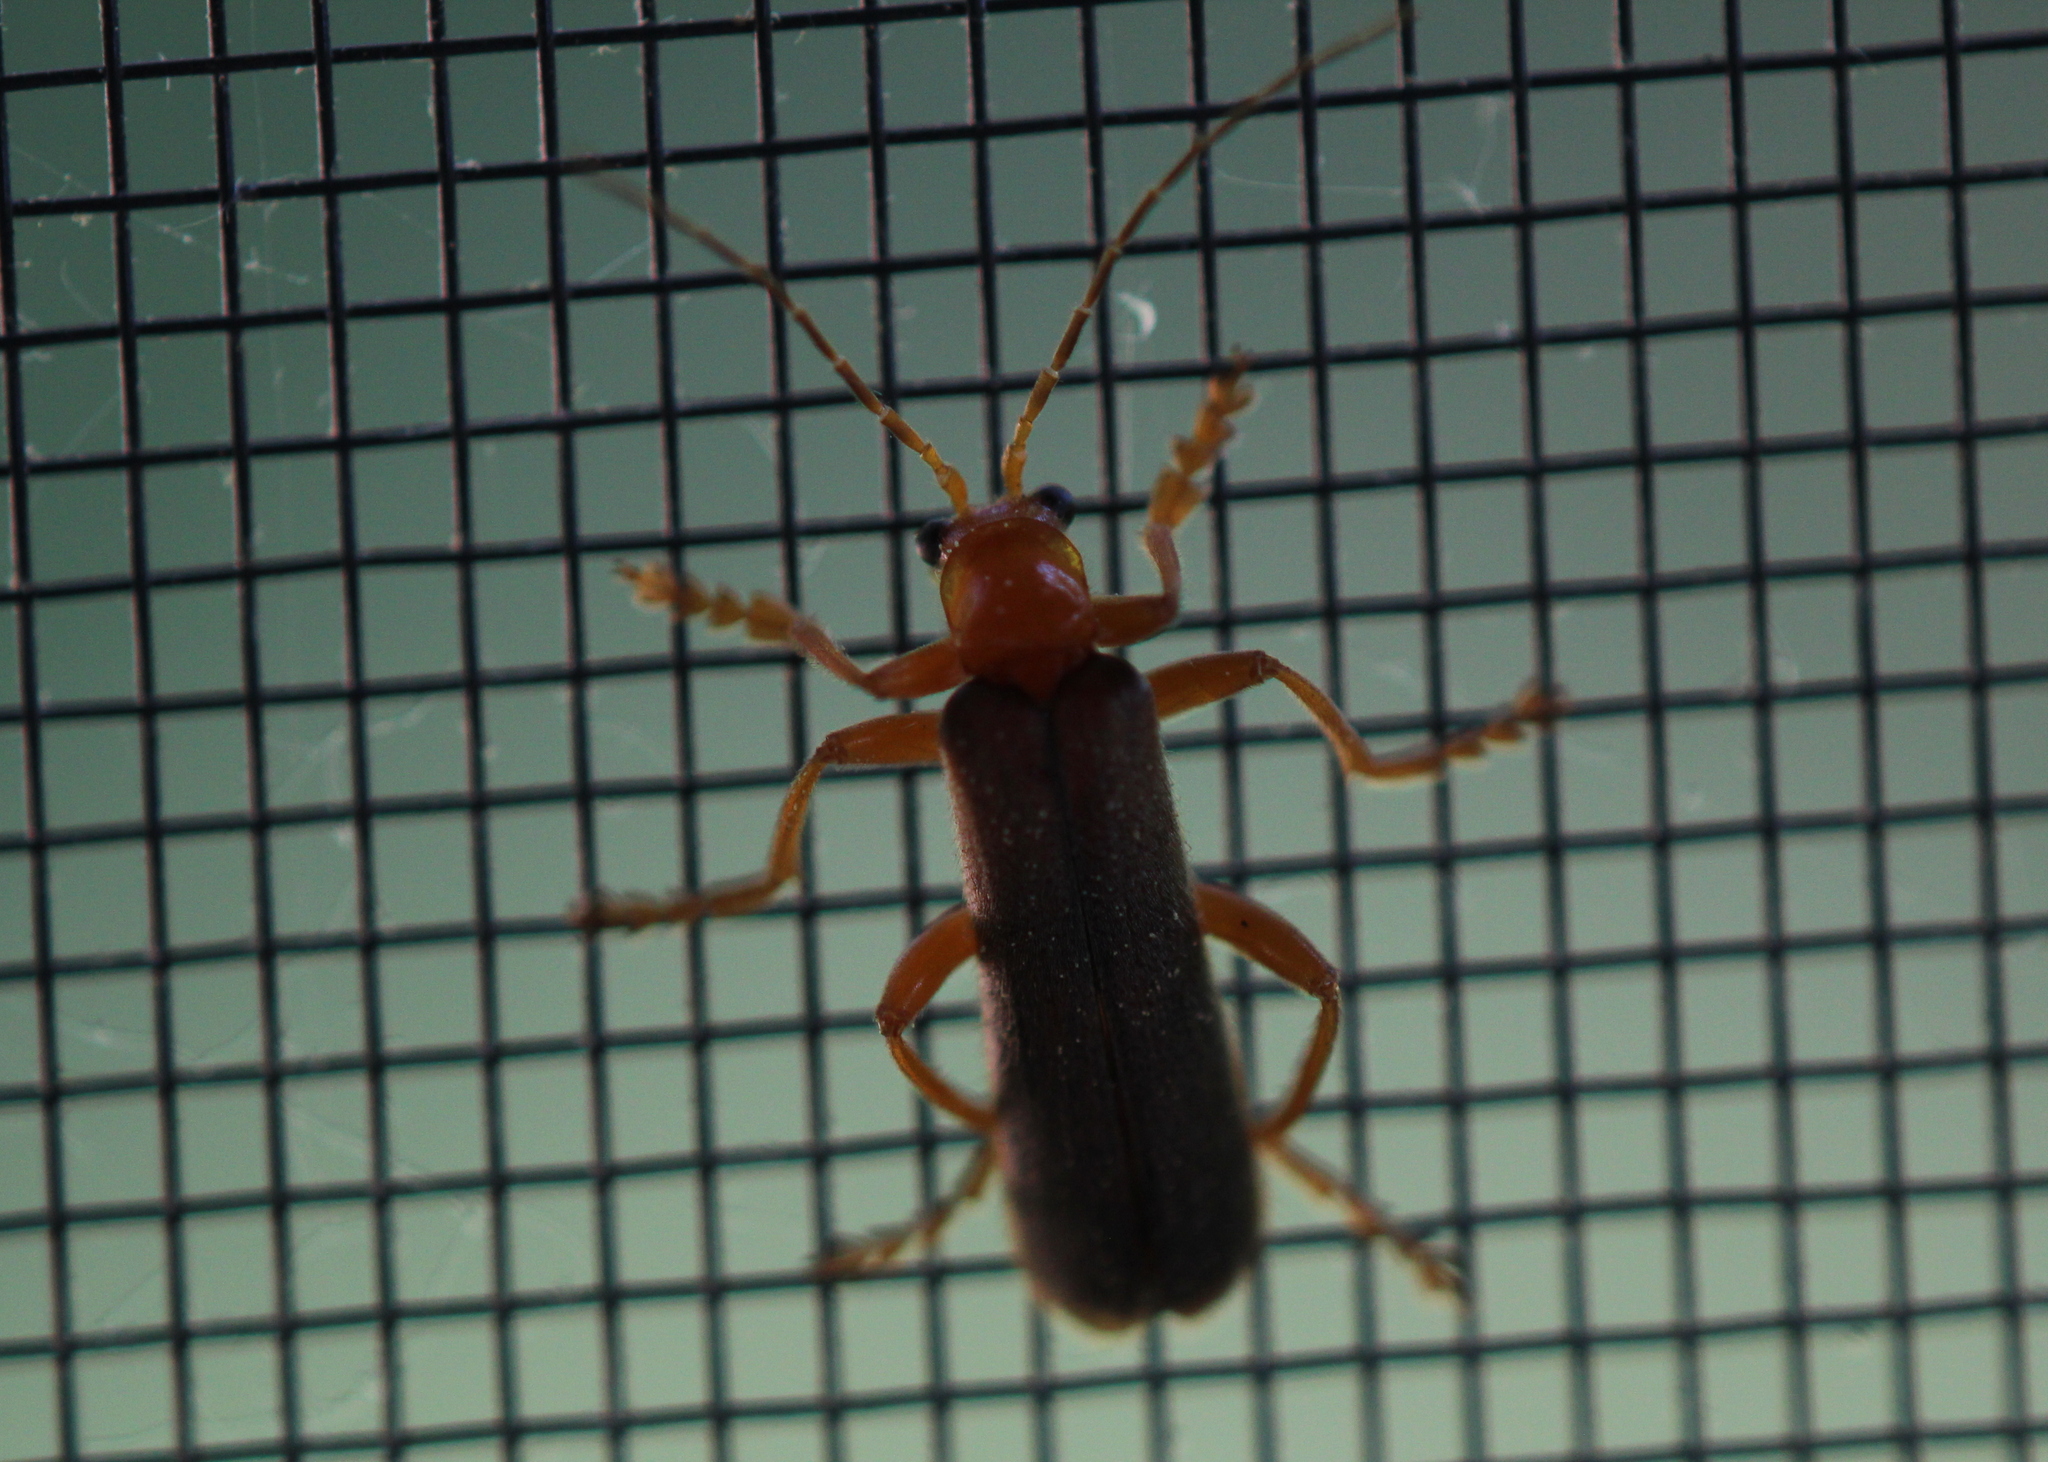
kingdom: Animalia
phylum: Arthropoda
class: Insecta
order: Coleoptera
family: Cantharidae
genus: Pacificanthia
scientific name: Pacificanthia rotundicollis
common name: Brown leatherwing beetle
